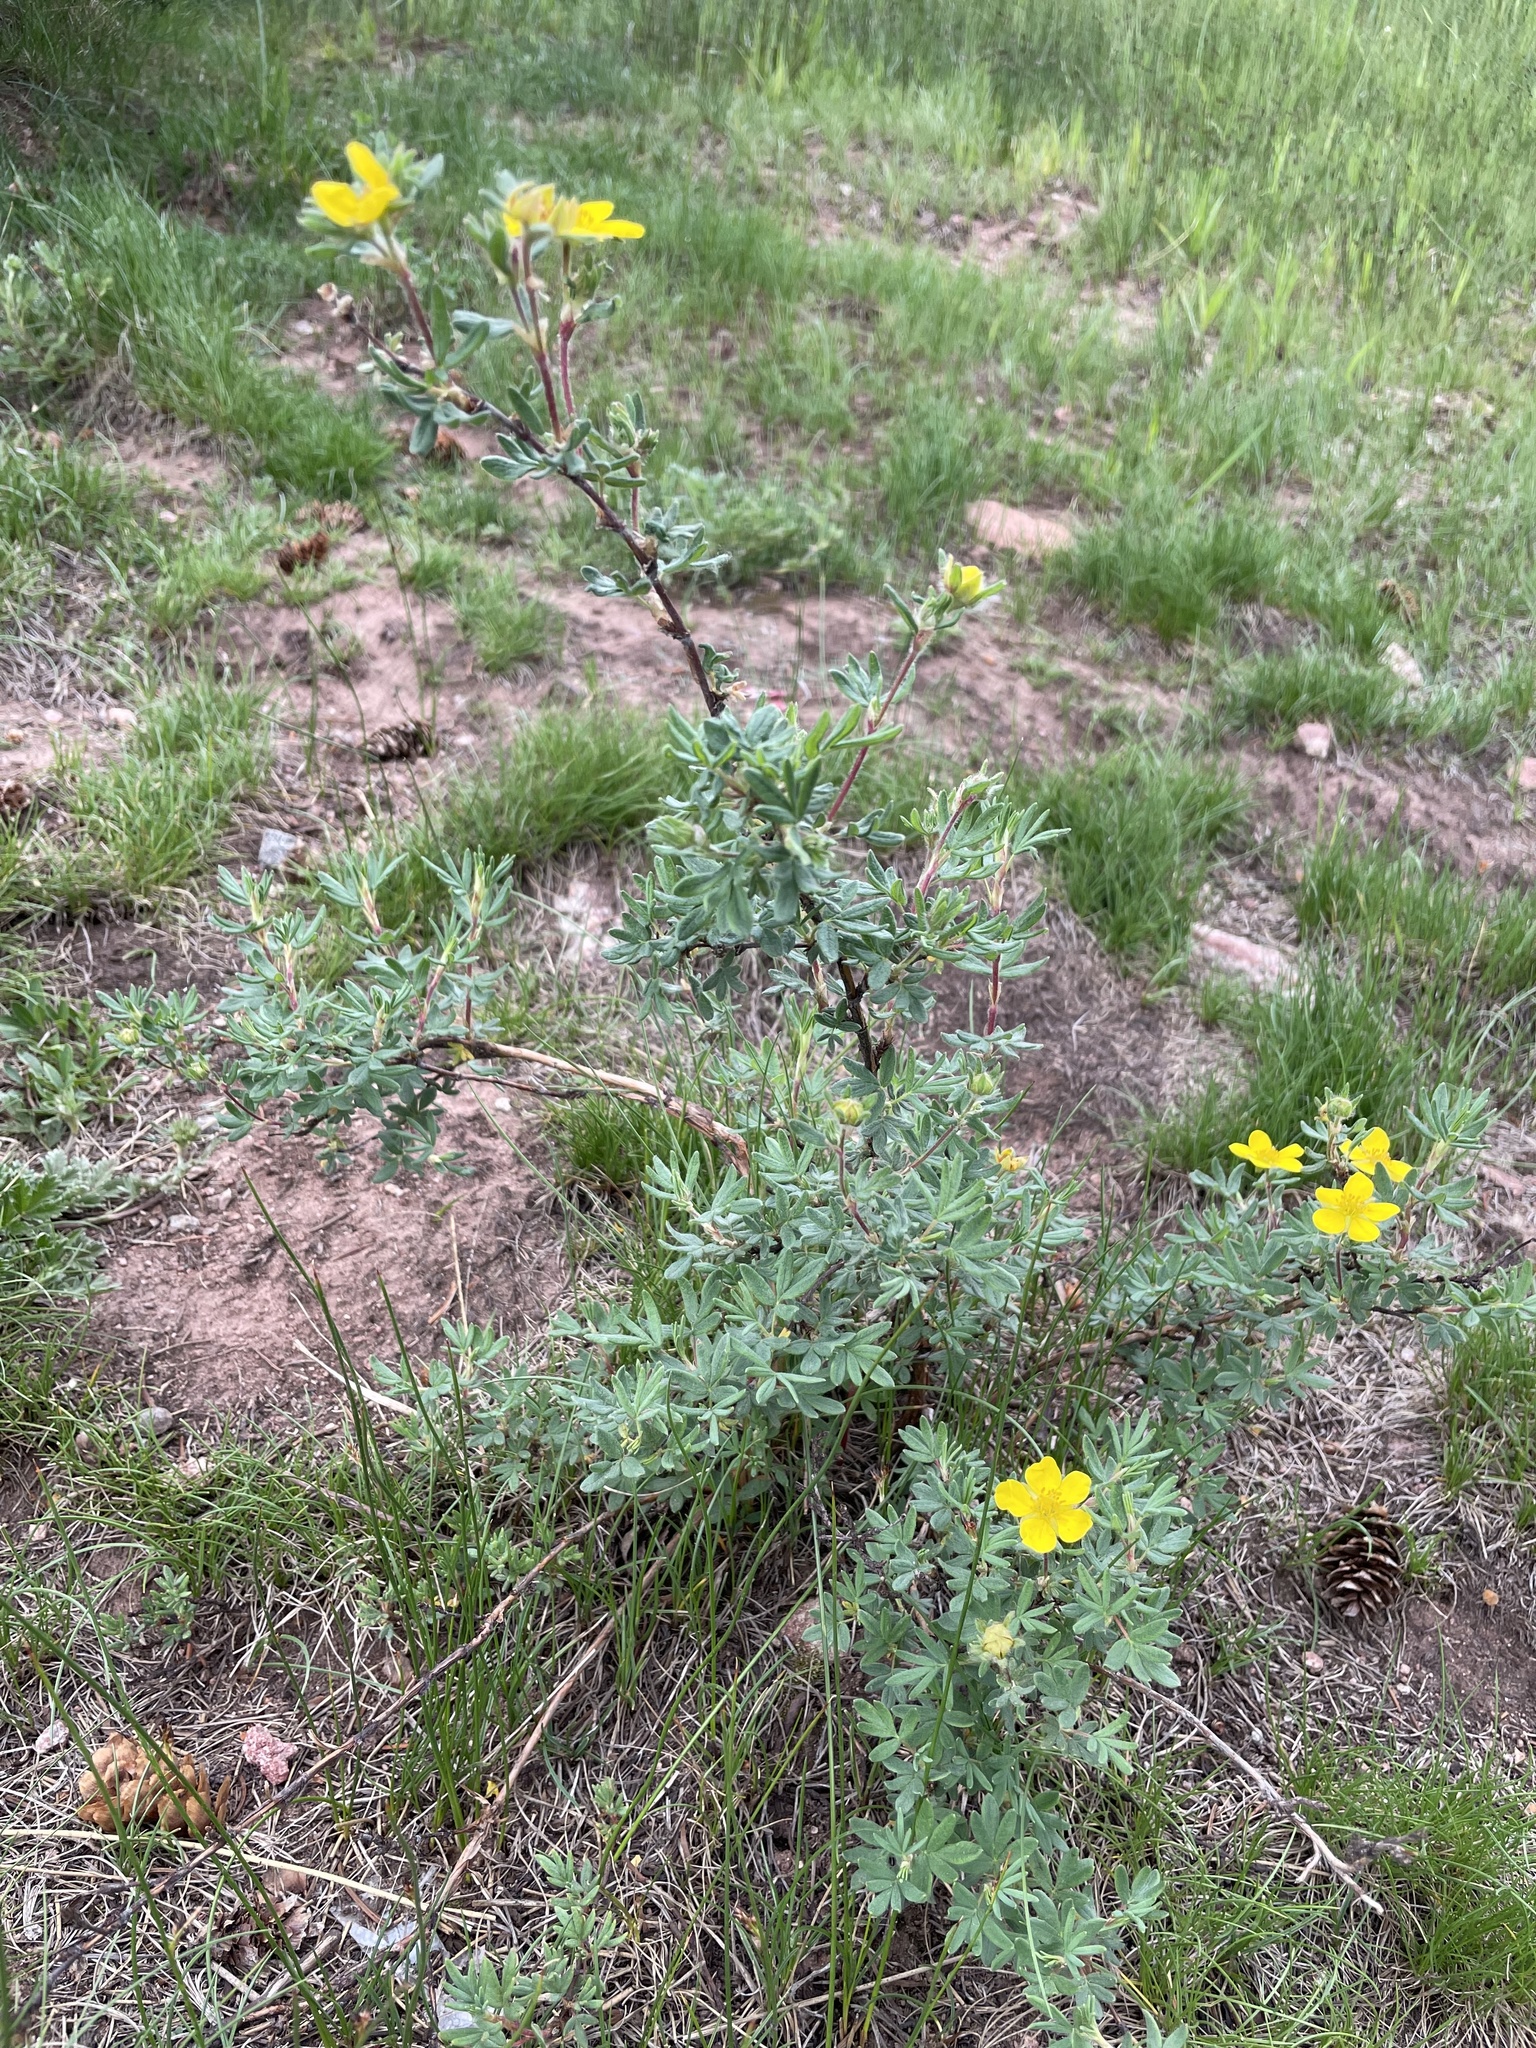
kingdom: Plantae
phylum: Tracheophyta
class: Magnoliopsida
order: Rosales
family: Rosaceae
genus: Dasiphora
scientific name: Dasiphora fruticosa
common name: Shrubby cinquefoil
